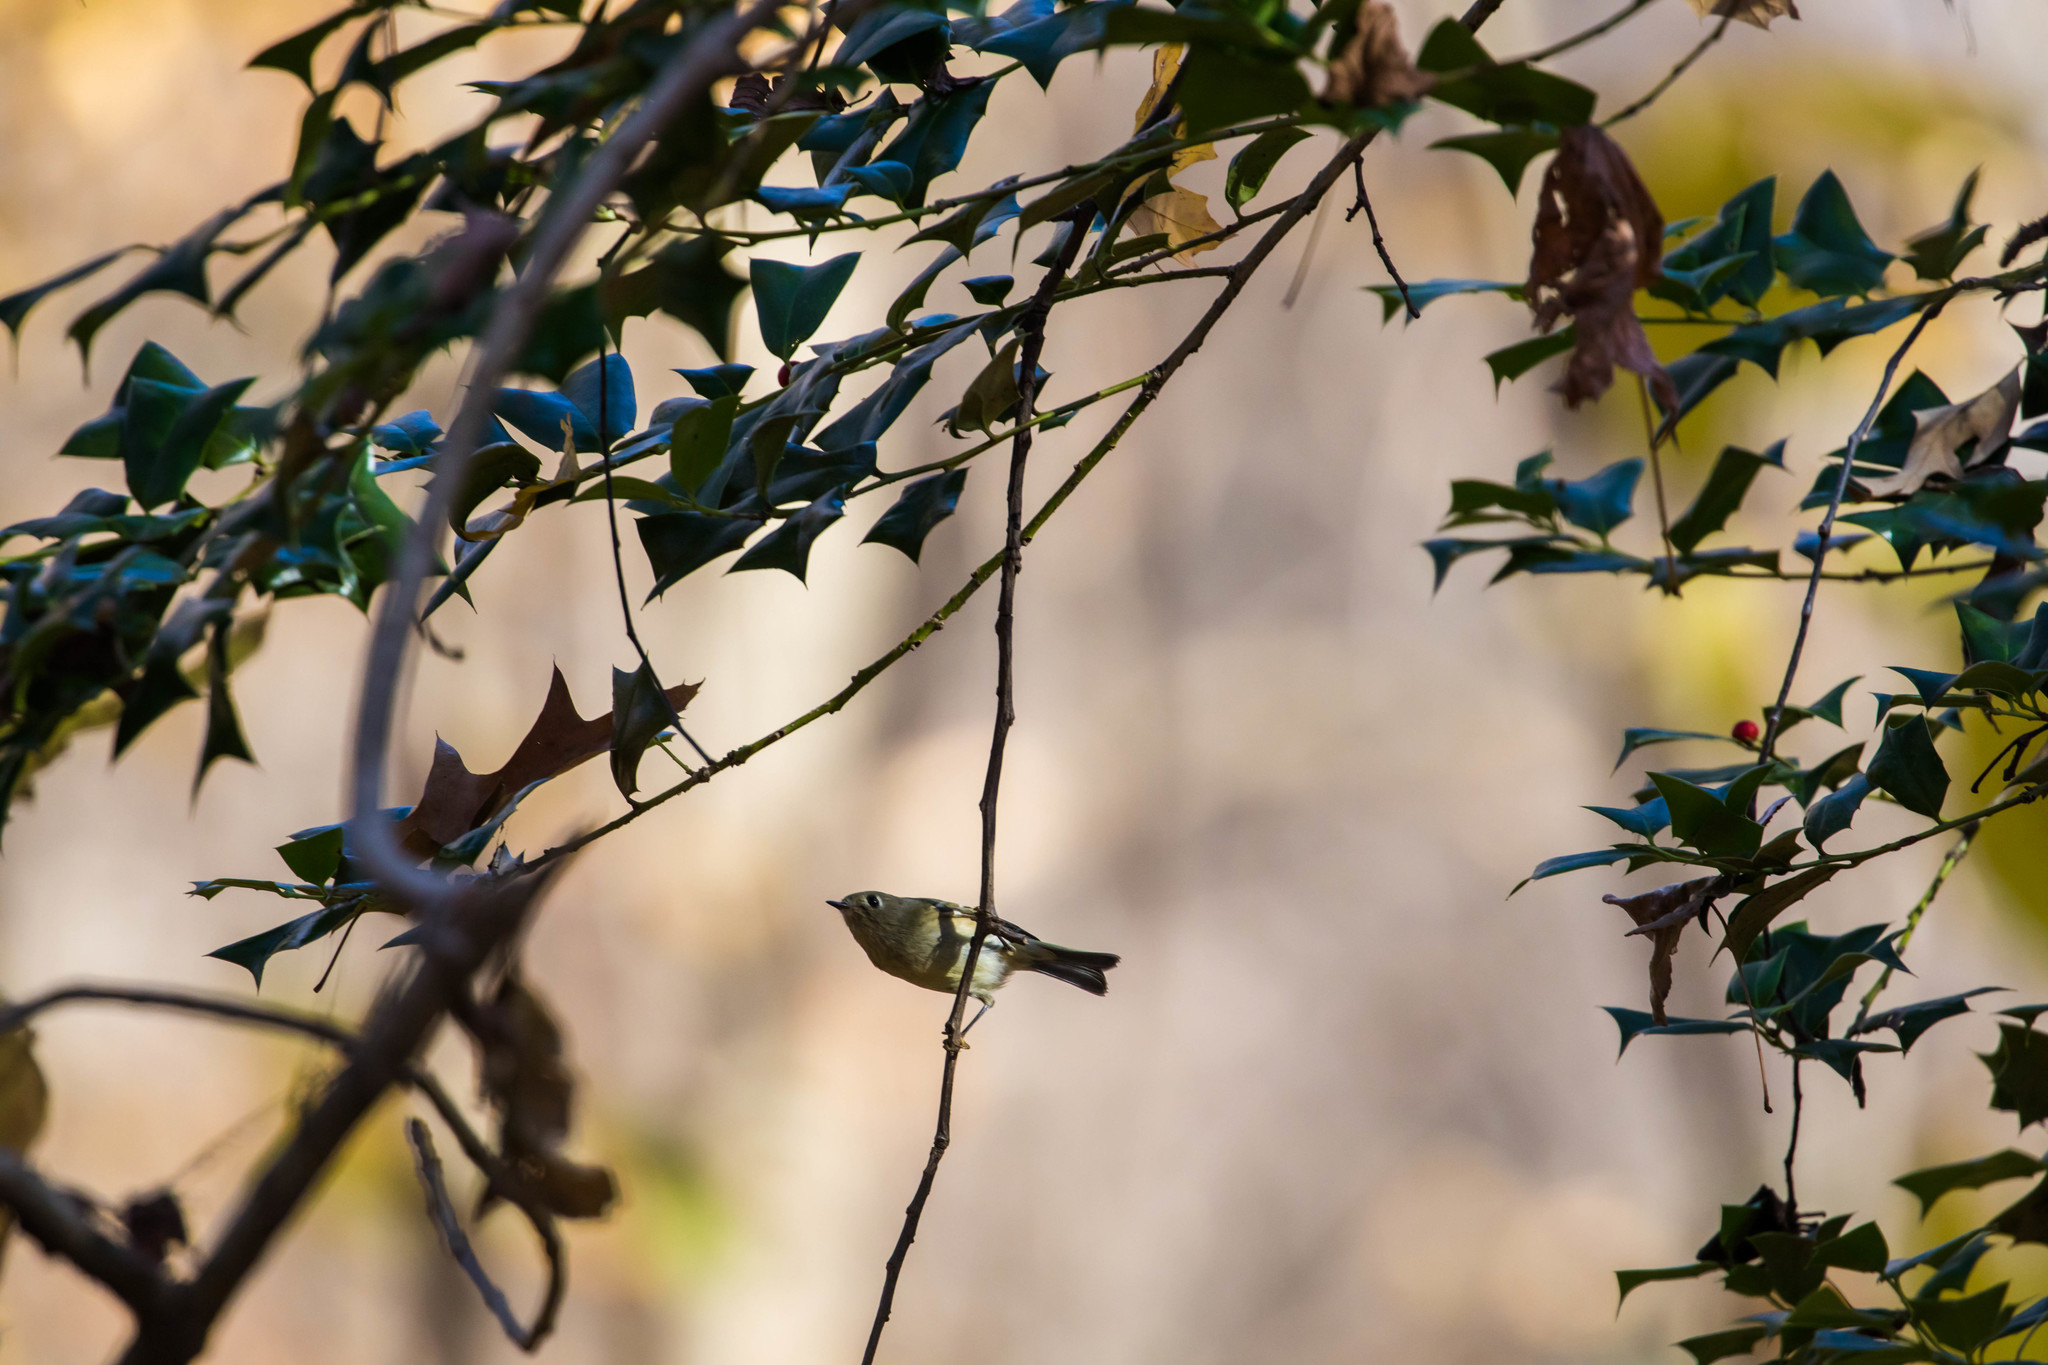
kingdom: Animalia
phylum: Chordata
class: Aves
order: Passeriformes
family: Regulidae
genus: Regulus
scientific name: Regulus calendula
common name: Ruby-crowned kinglet
